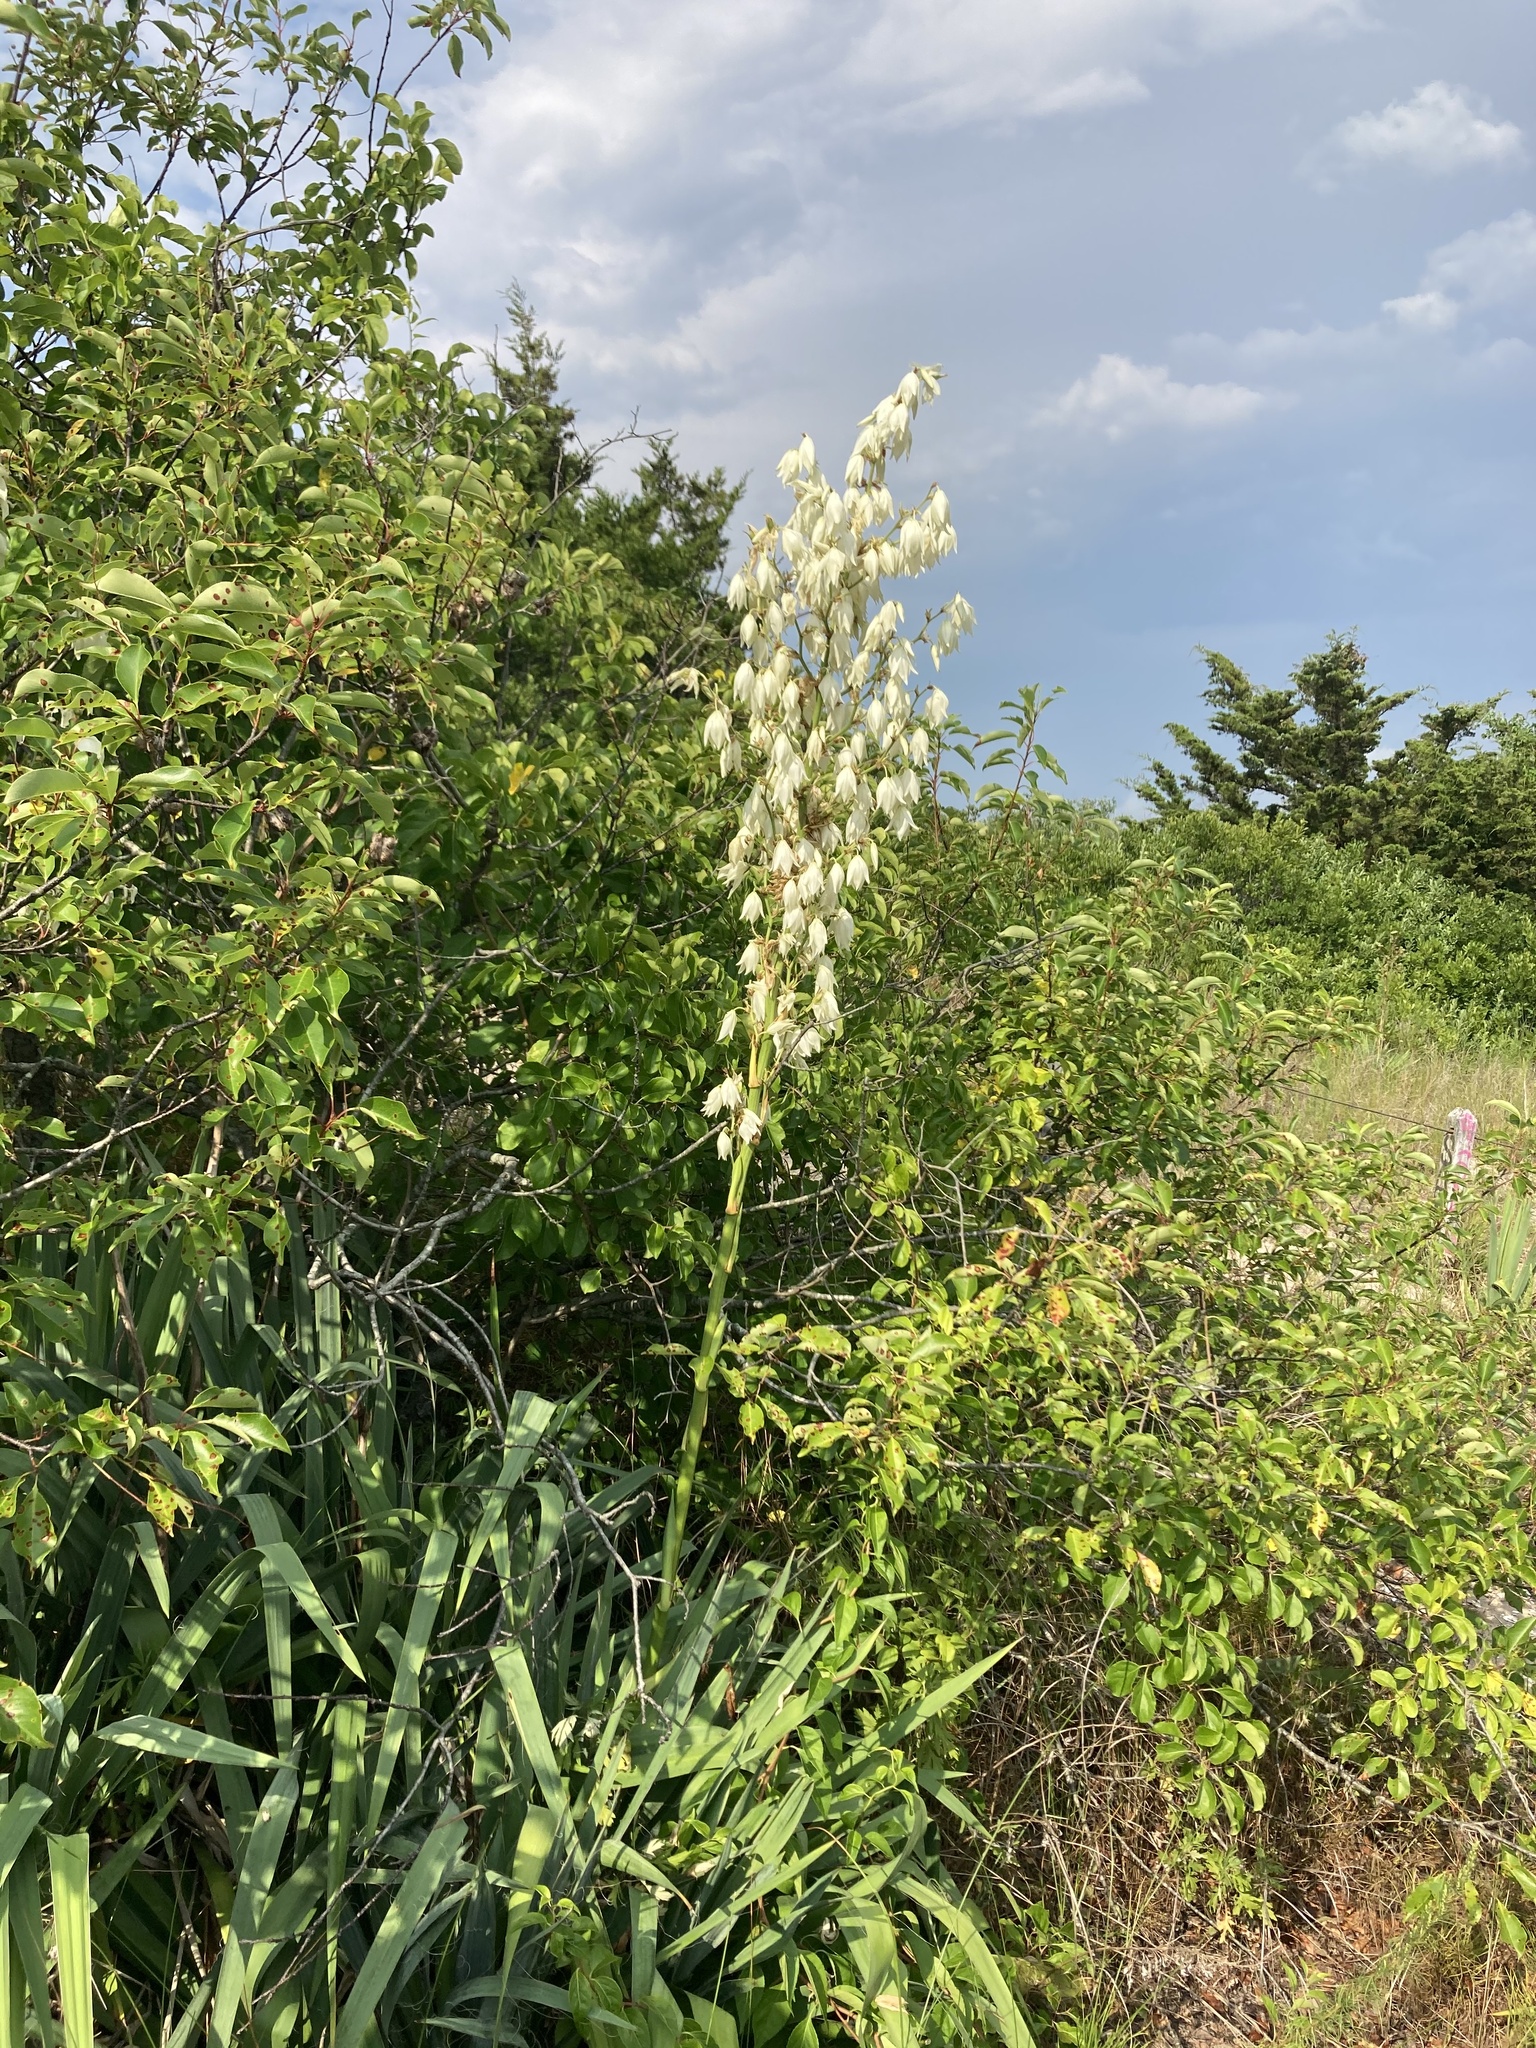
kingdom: Plantae
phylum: Tracheophyta
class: Liliopsida
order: Asparagales
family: Asparagaceae
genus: Yucca
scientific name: Yucca filamentosa
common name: Adam's-needle
